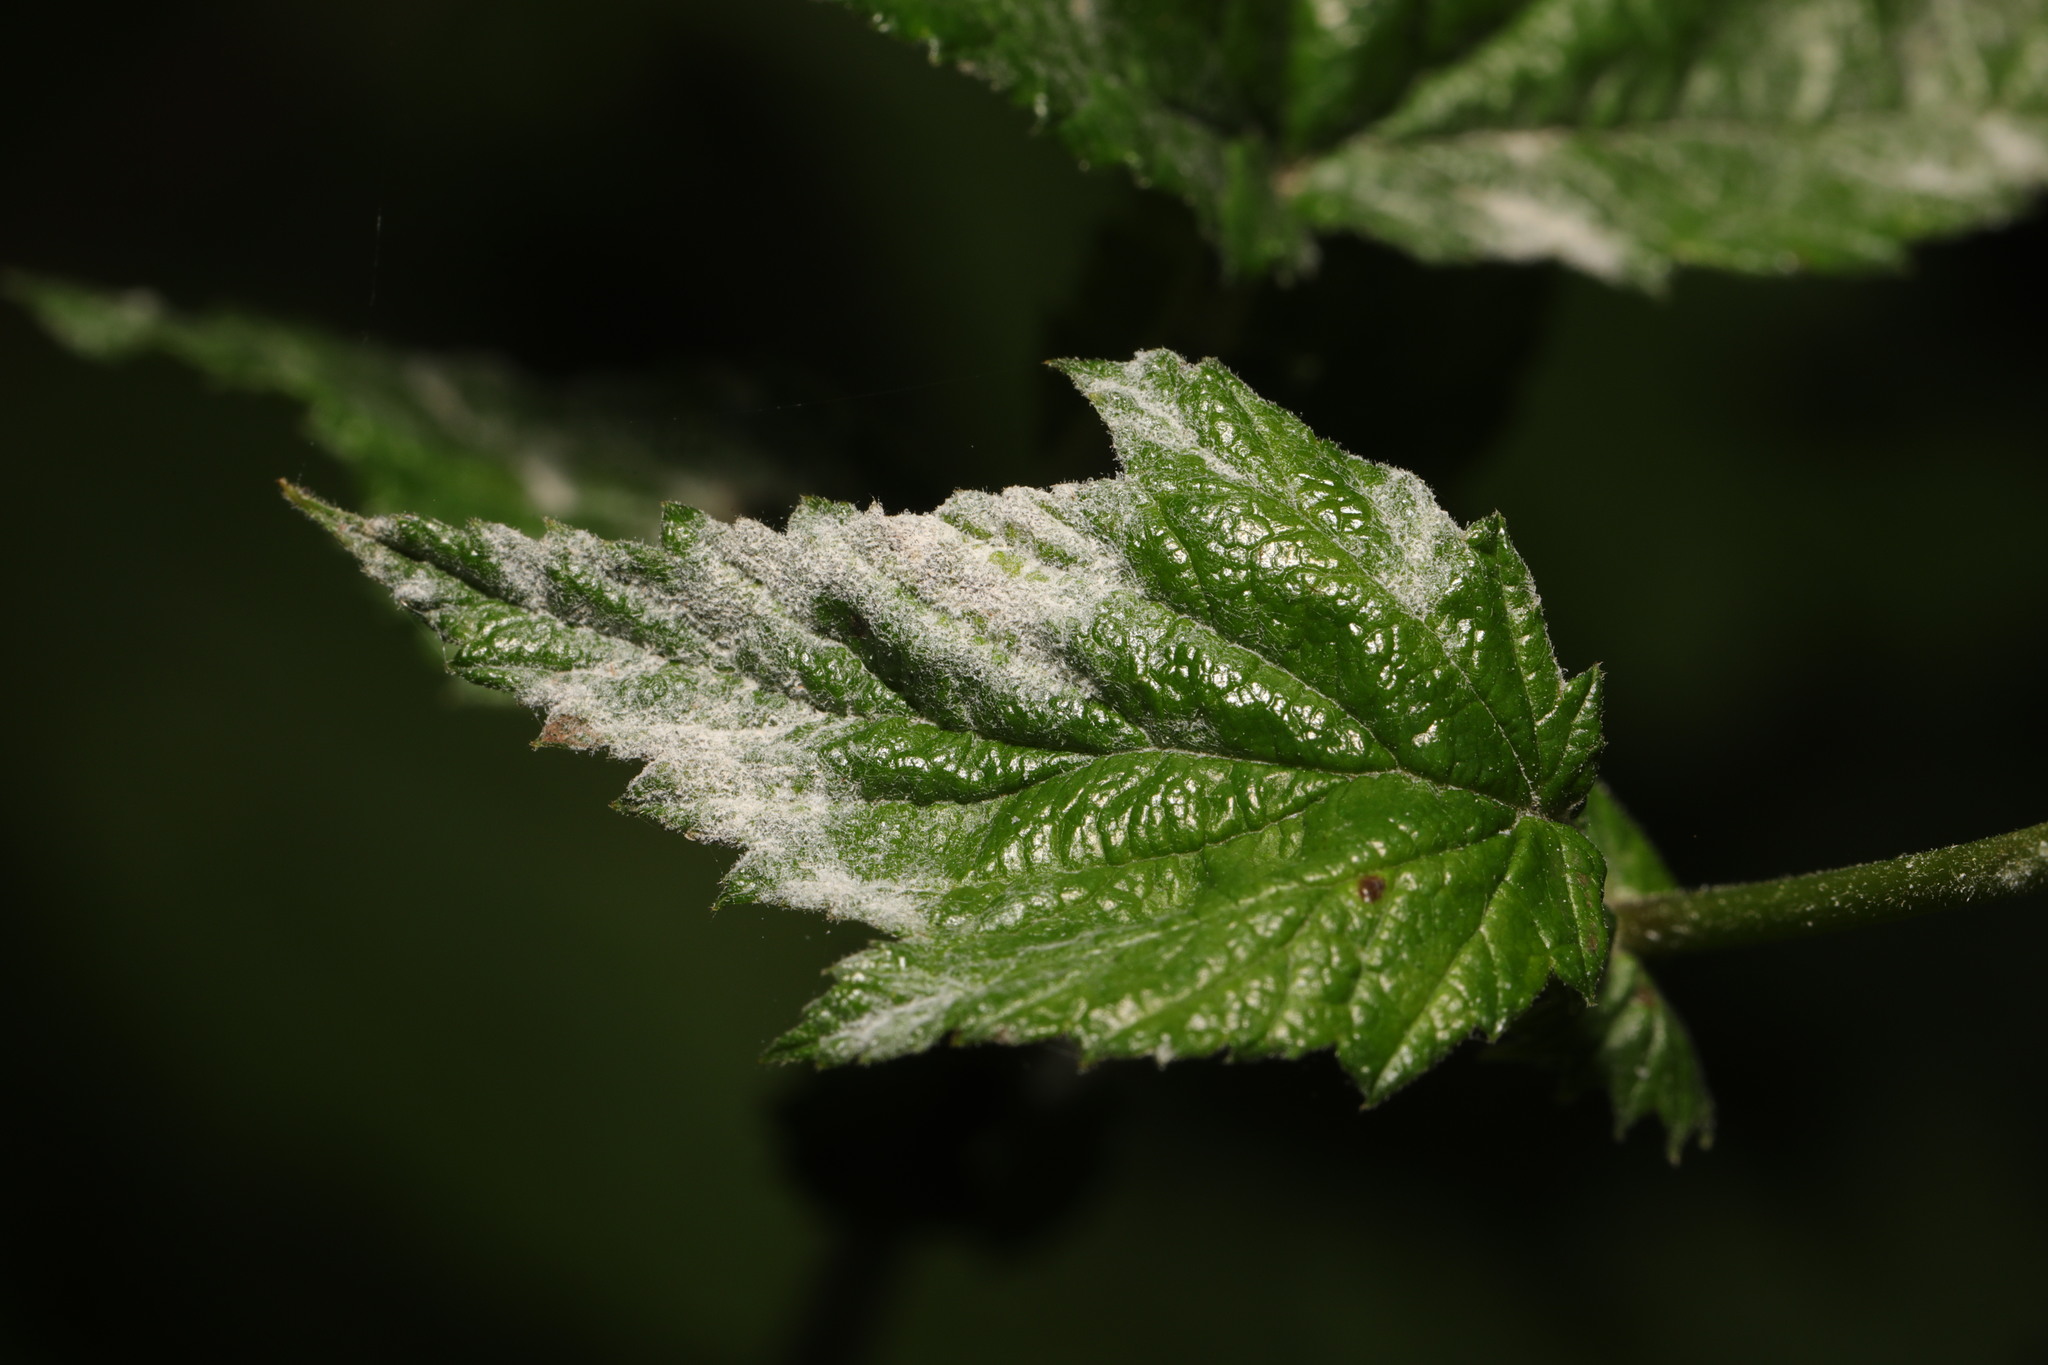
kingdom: Fungi
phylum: Ascomycota
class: Leotiomycetes
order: Helotiales
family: Erysiphaceae
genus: Podosphaera
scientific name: Podosphaera filipendulae
